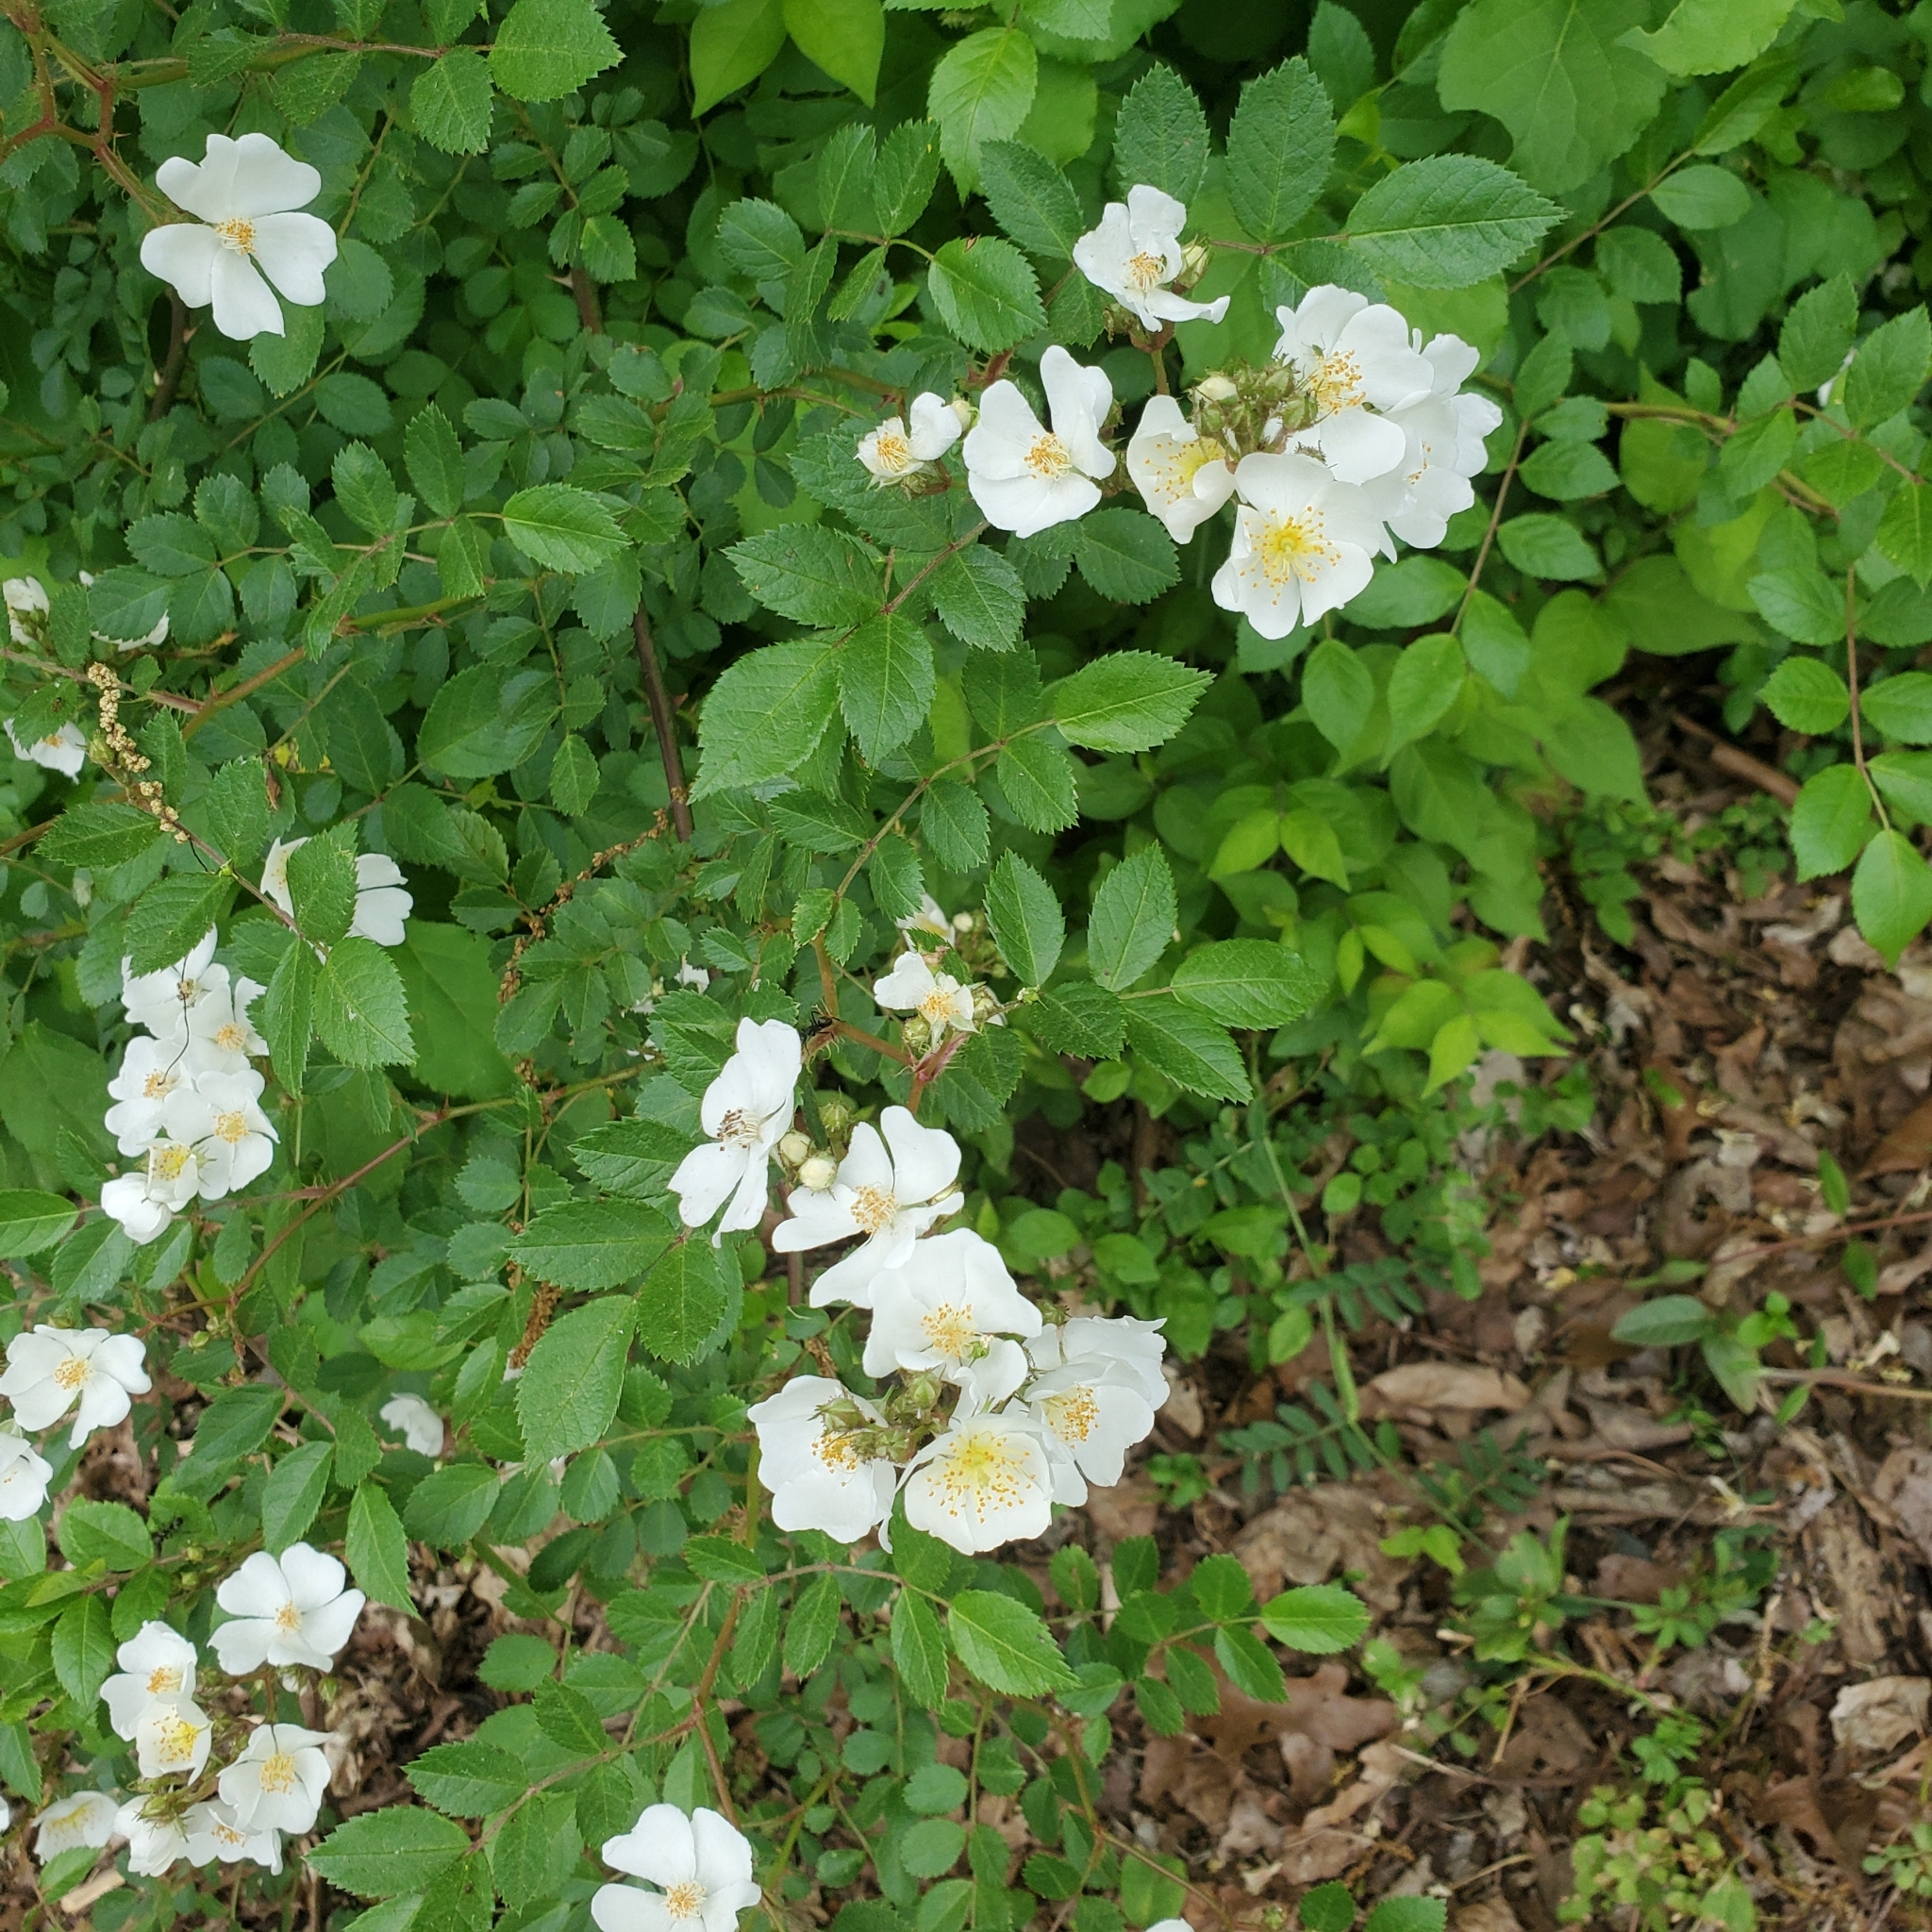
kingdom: Plantae
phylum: Tracheophyta
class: Magnoliopsida
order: Rosales
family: Rosaceae
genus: Rosa
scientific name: Rosa multiflora
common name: Multiflora rose
